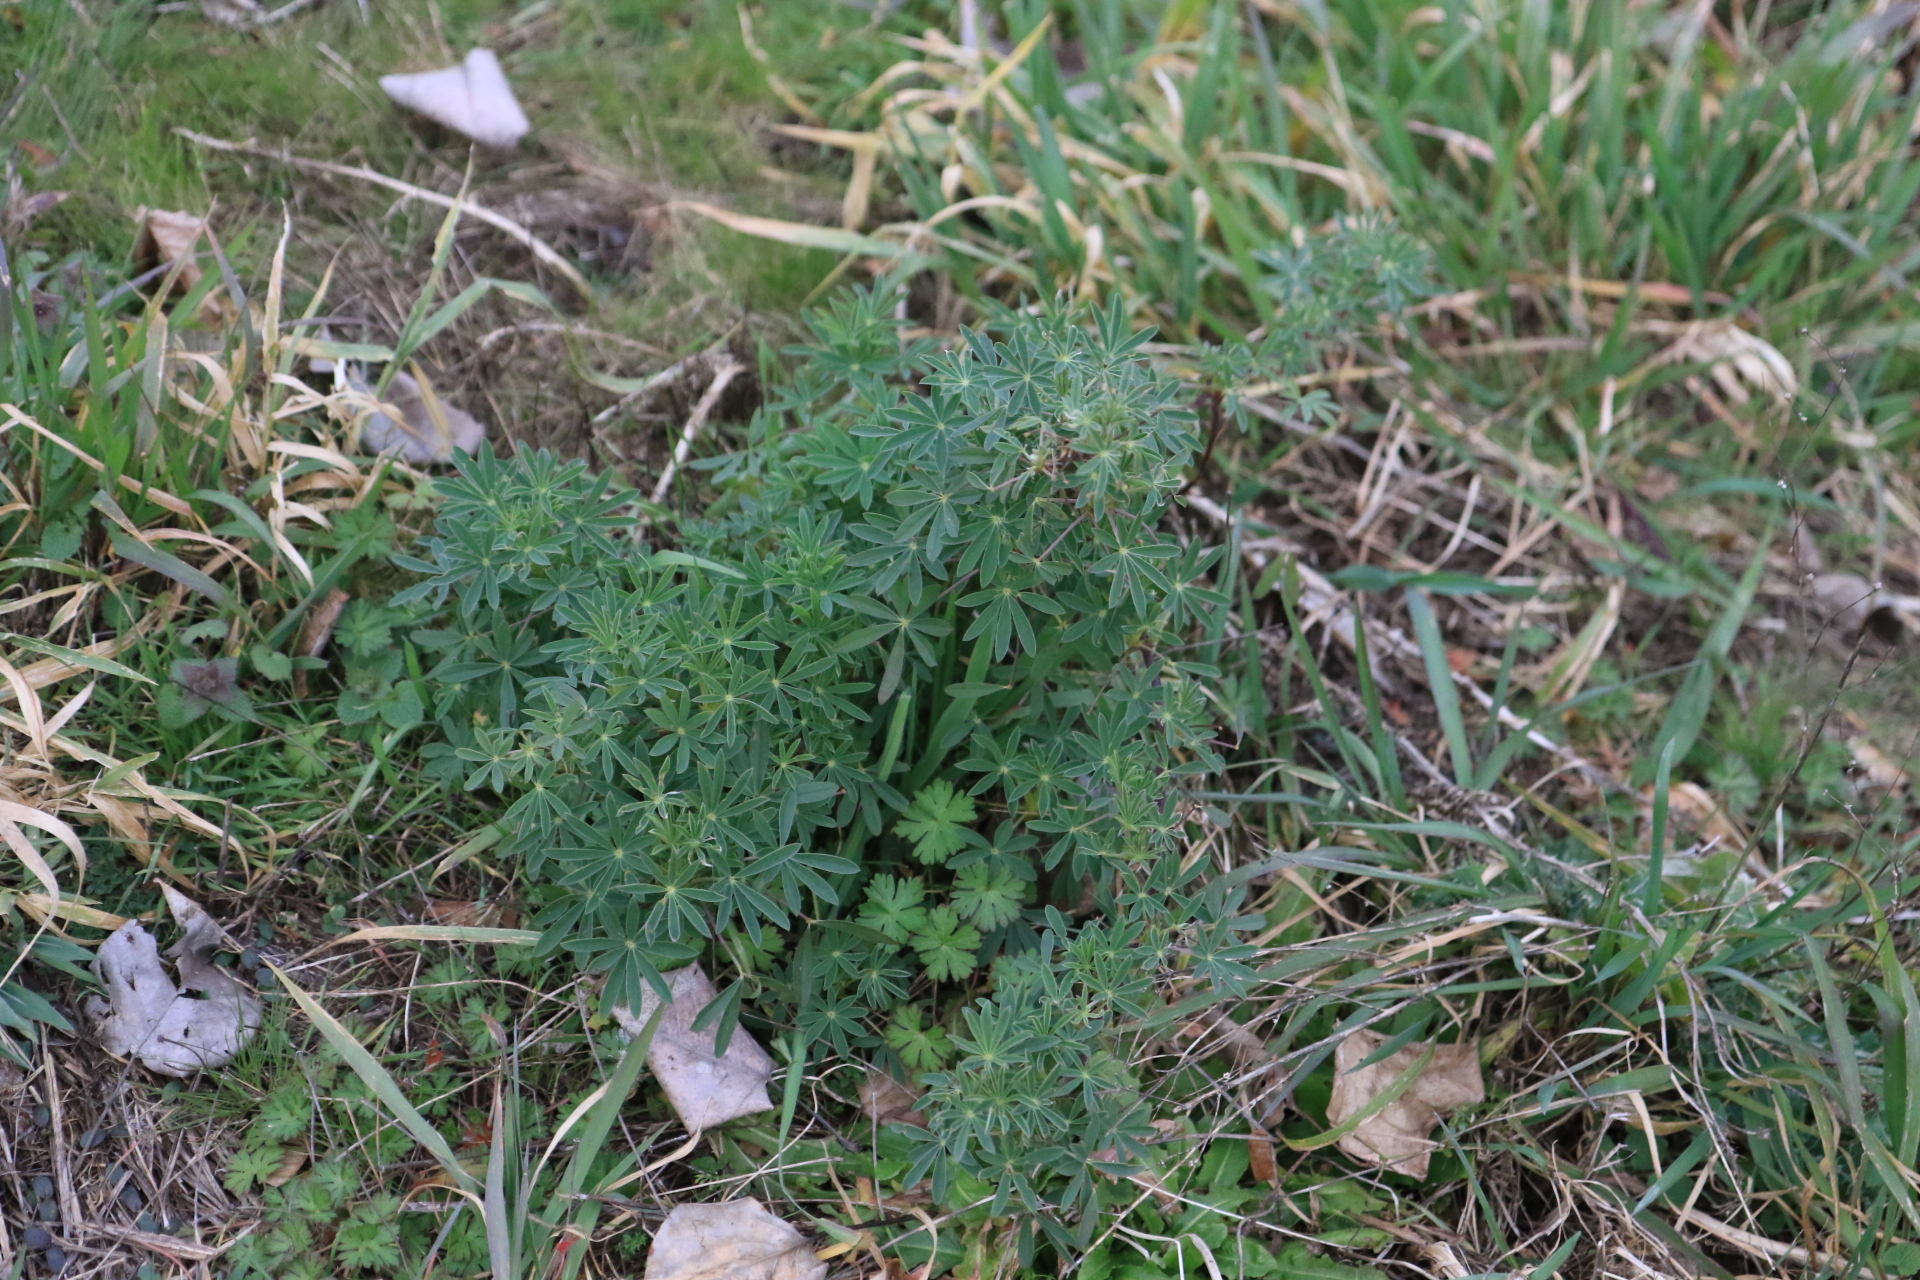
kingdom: Plantae
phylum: Tracheophyta
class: Magnoliopsida
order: Fabales
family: Fabaceae
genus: Lupinus
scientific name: Lupinus
